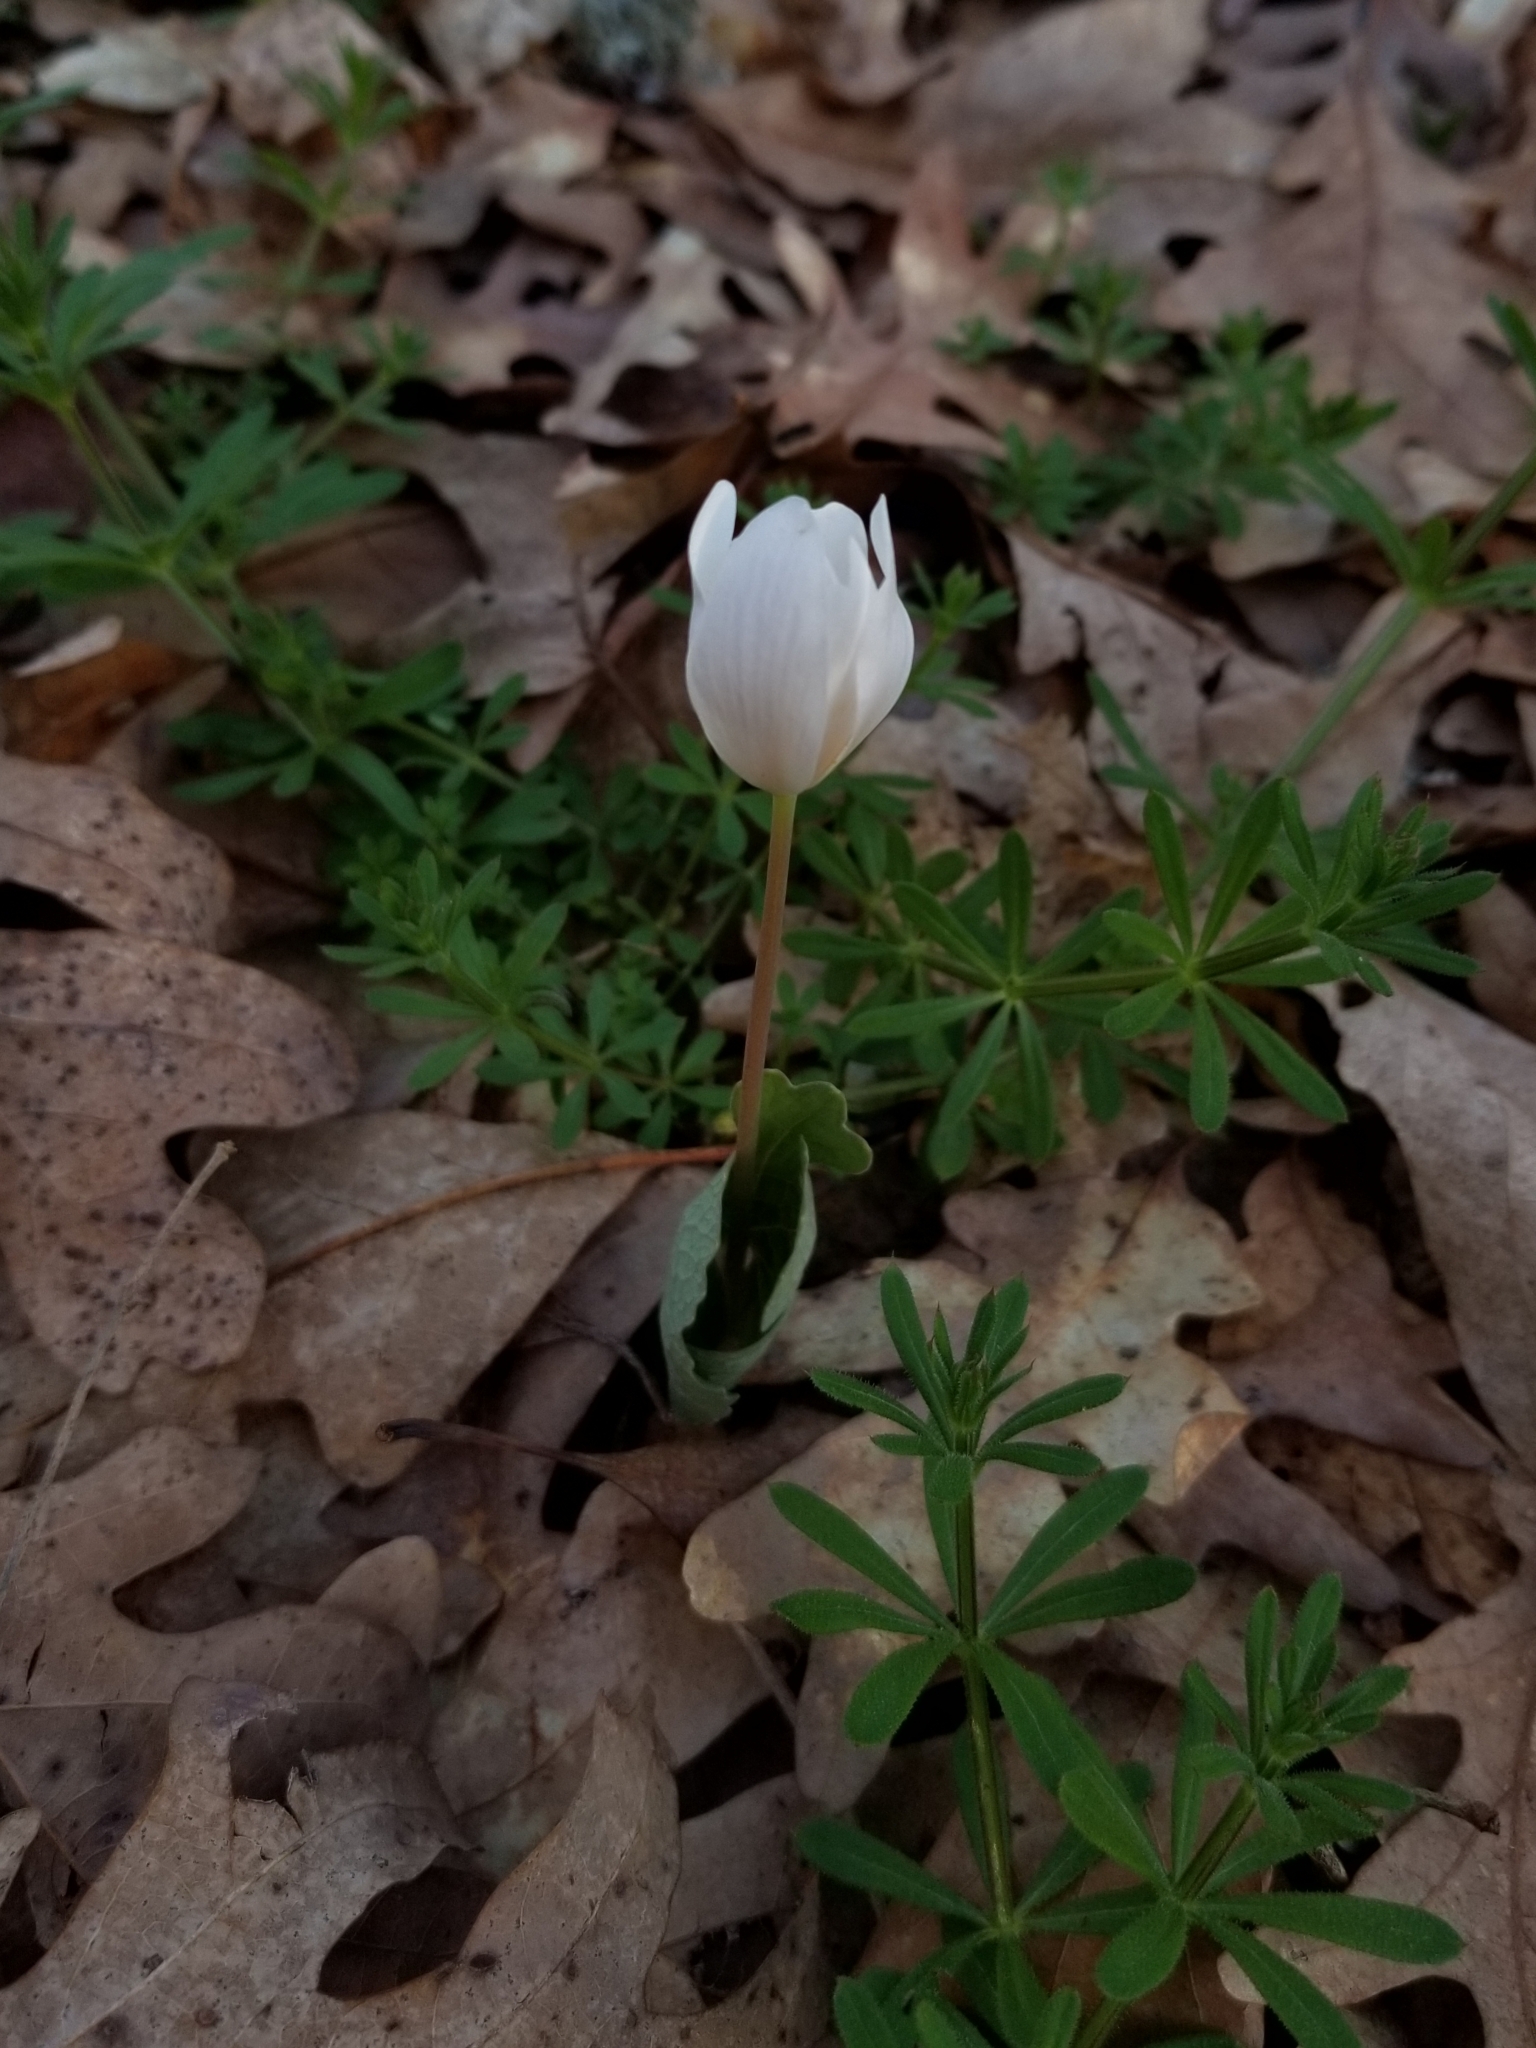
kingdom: Plantae
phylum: Tracheophyta
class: Magnoliopsida
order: Ranunculales
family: Papaveraceae
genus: Sanguinaria
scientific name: Sanguinaria canadensis
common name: Bloodroot
